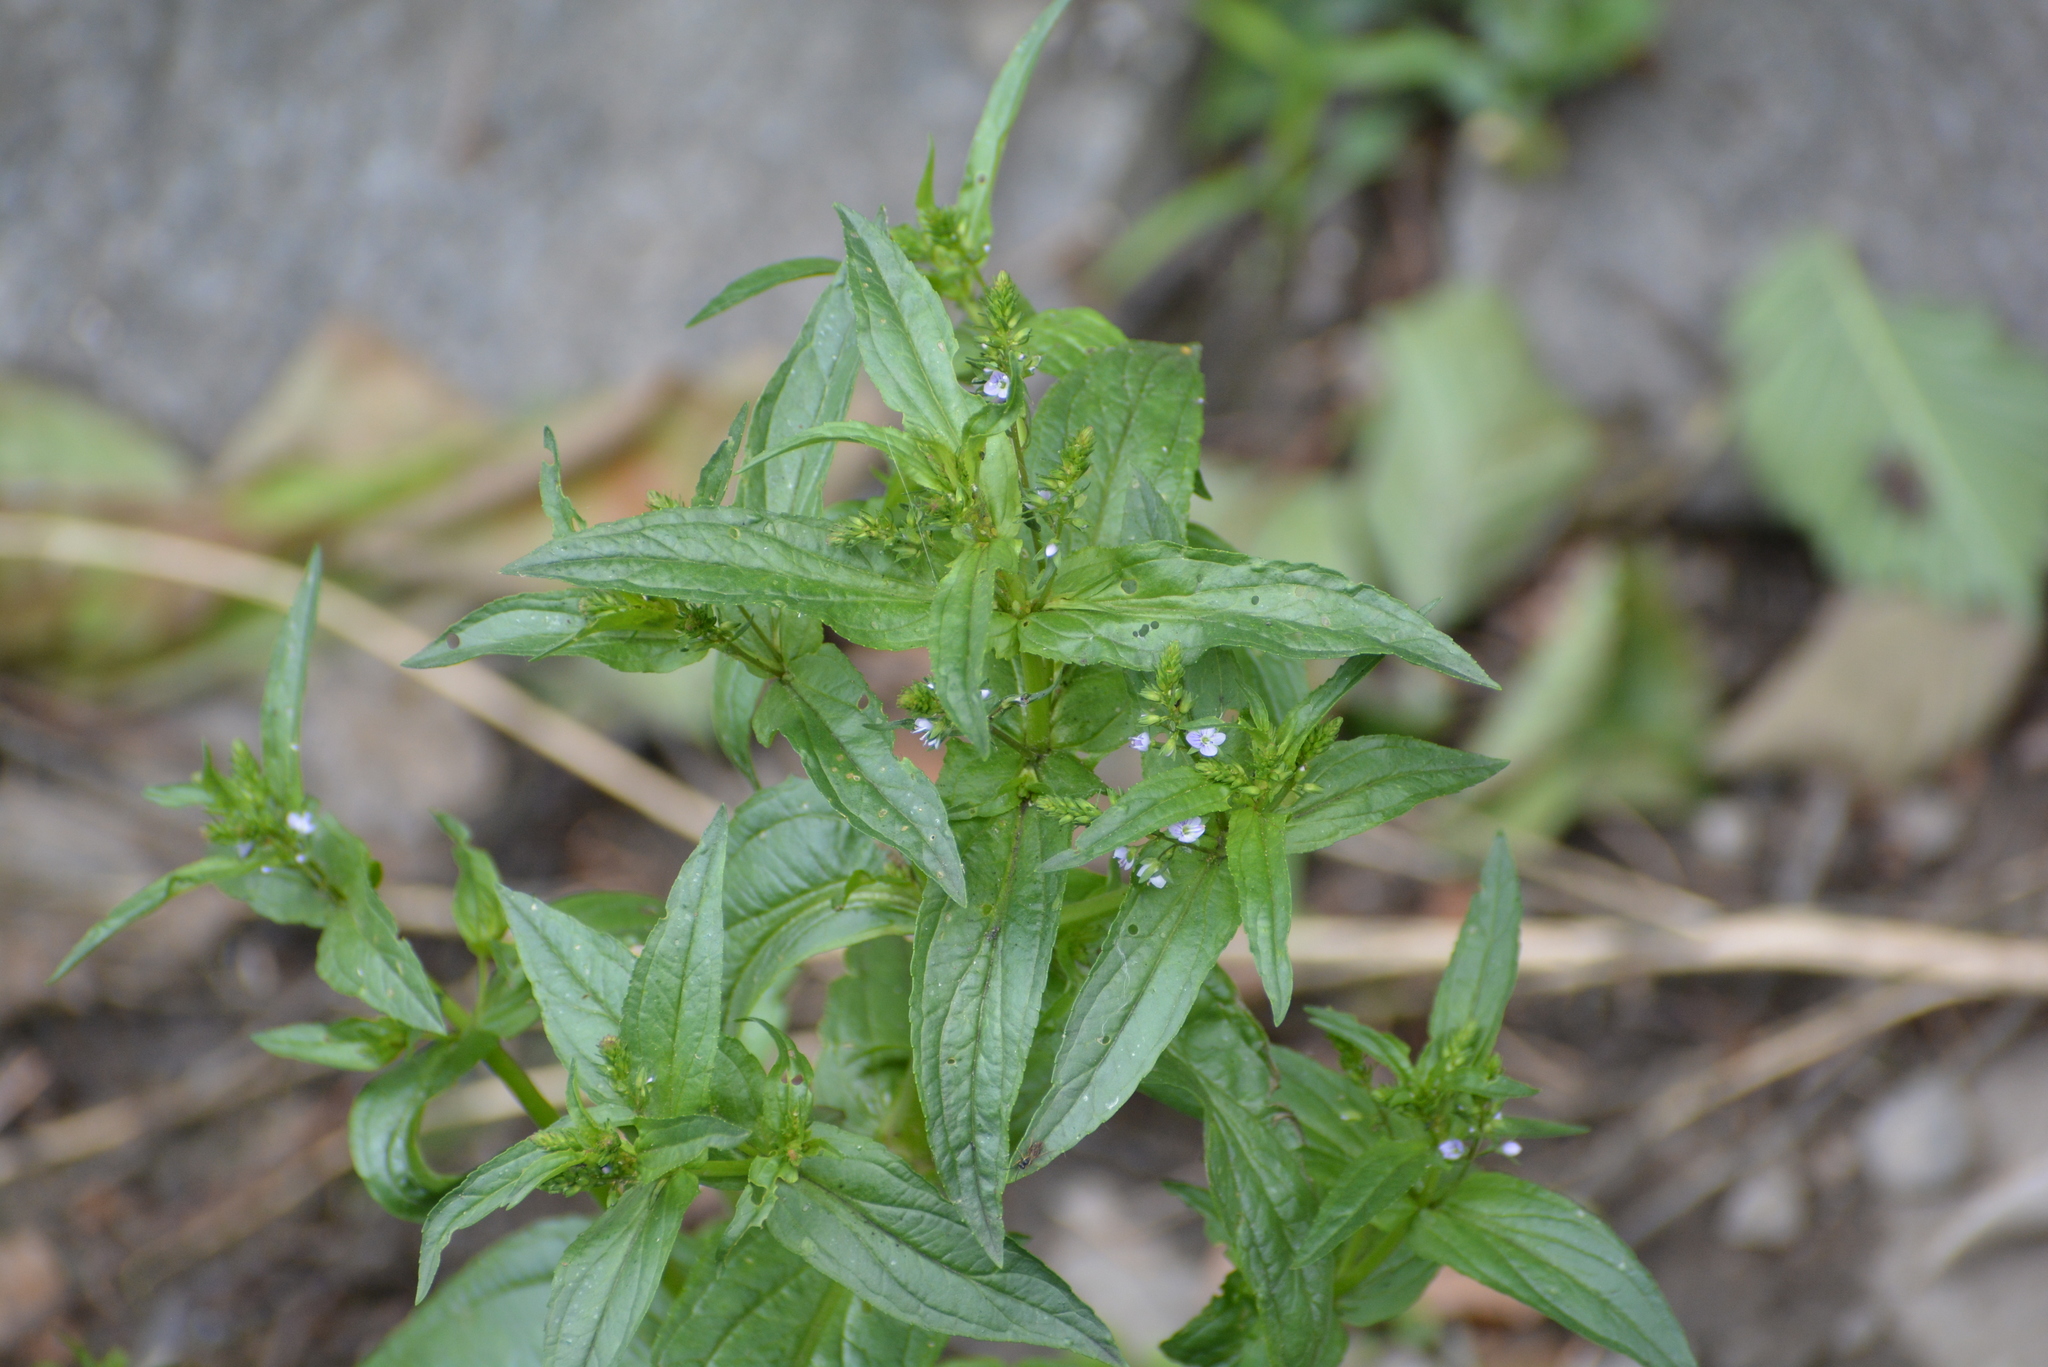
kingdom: Plantae
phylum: Tracheophyta
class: Magnoliopsida
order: Lamiales
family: Plantaginaceae
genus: Veronica
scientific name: Veronica anagallis-aquatica
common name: Water speedwell
